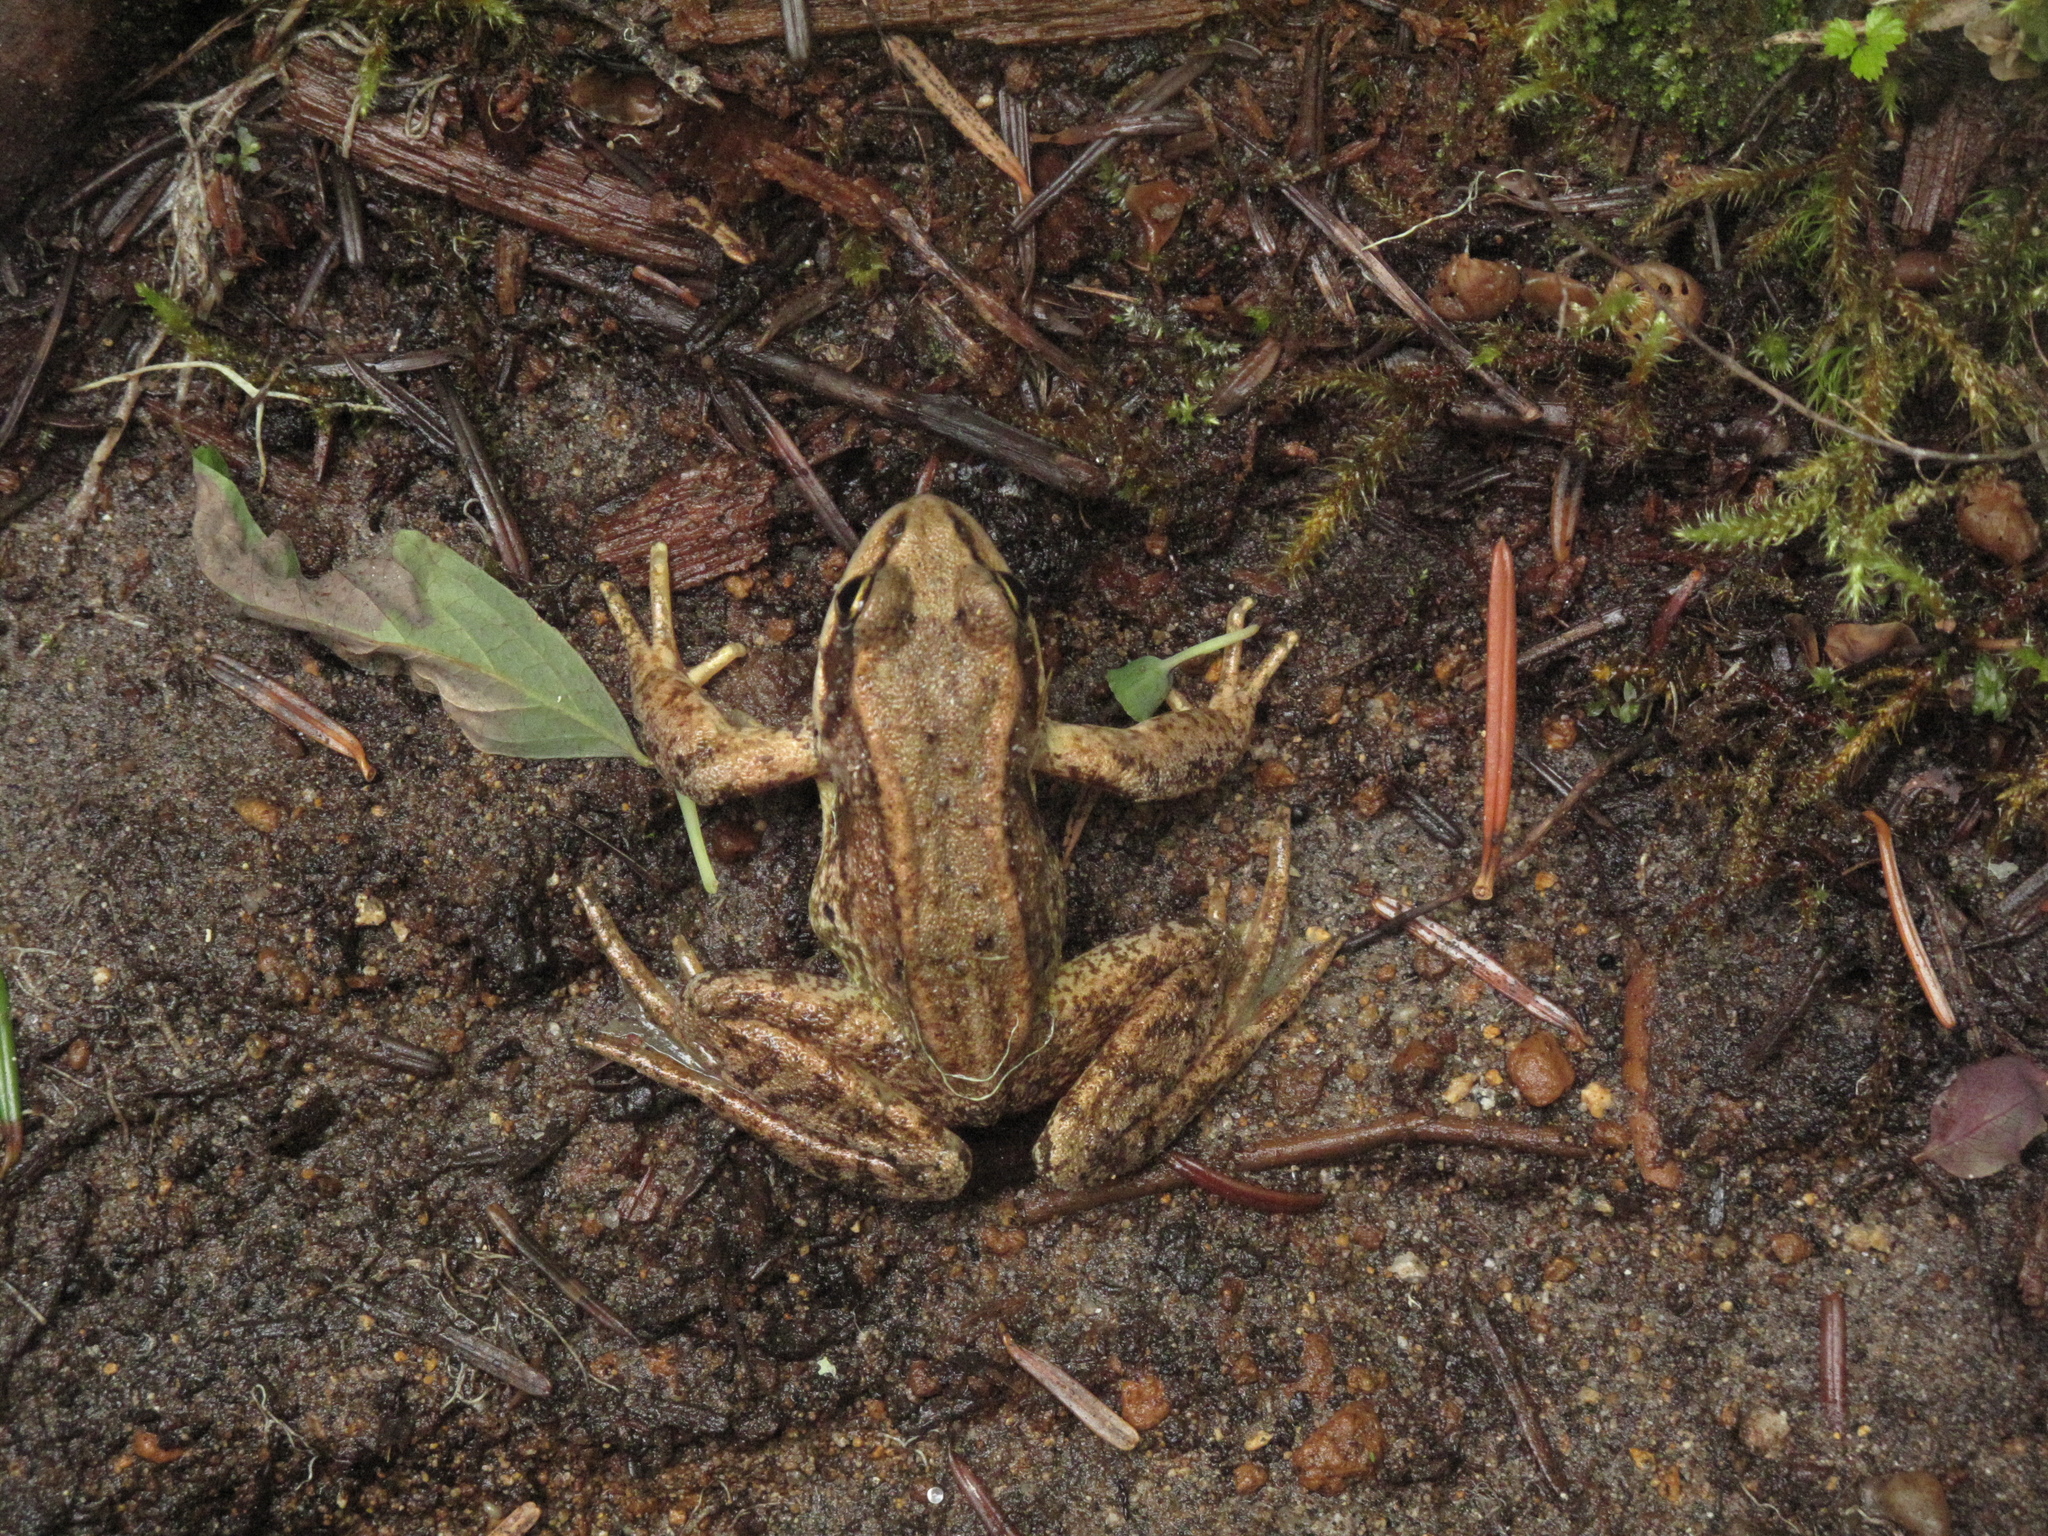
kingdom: Animalia
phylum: Chordata
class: Amphibia
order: Anura
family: Ranidae
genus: Rana
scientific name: Rana cascadae
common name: Cascades frog
